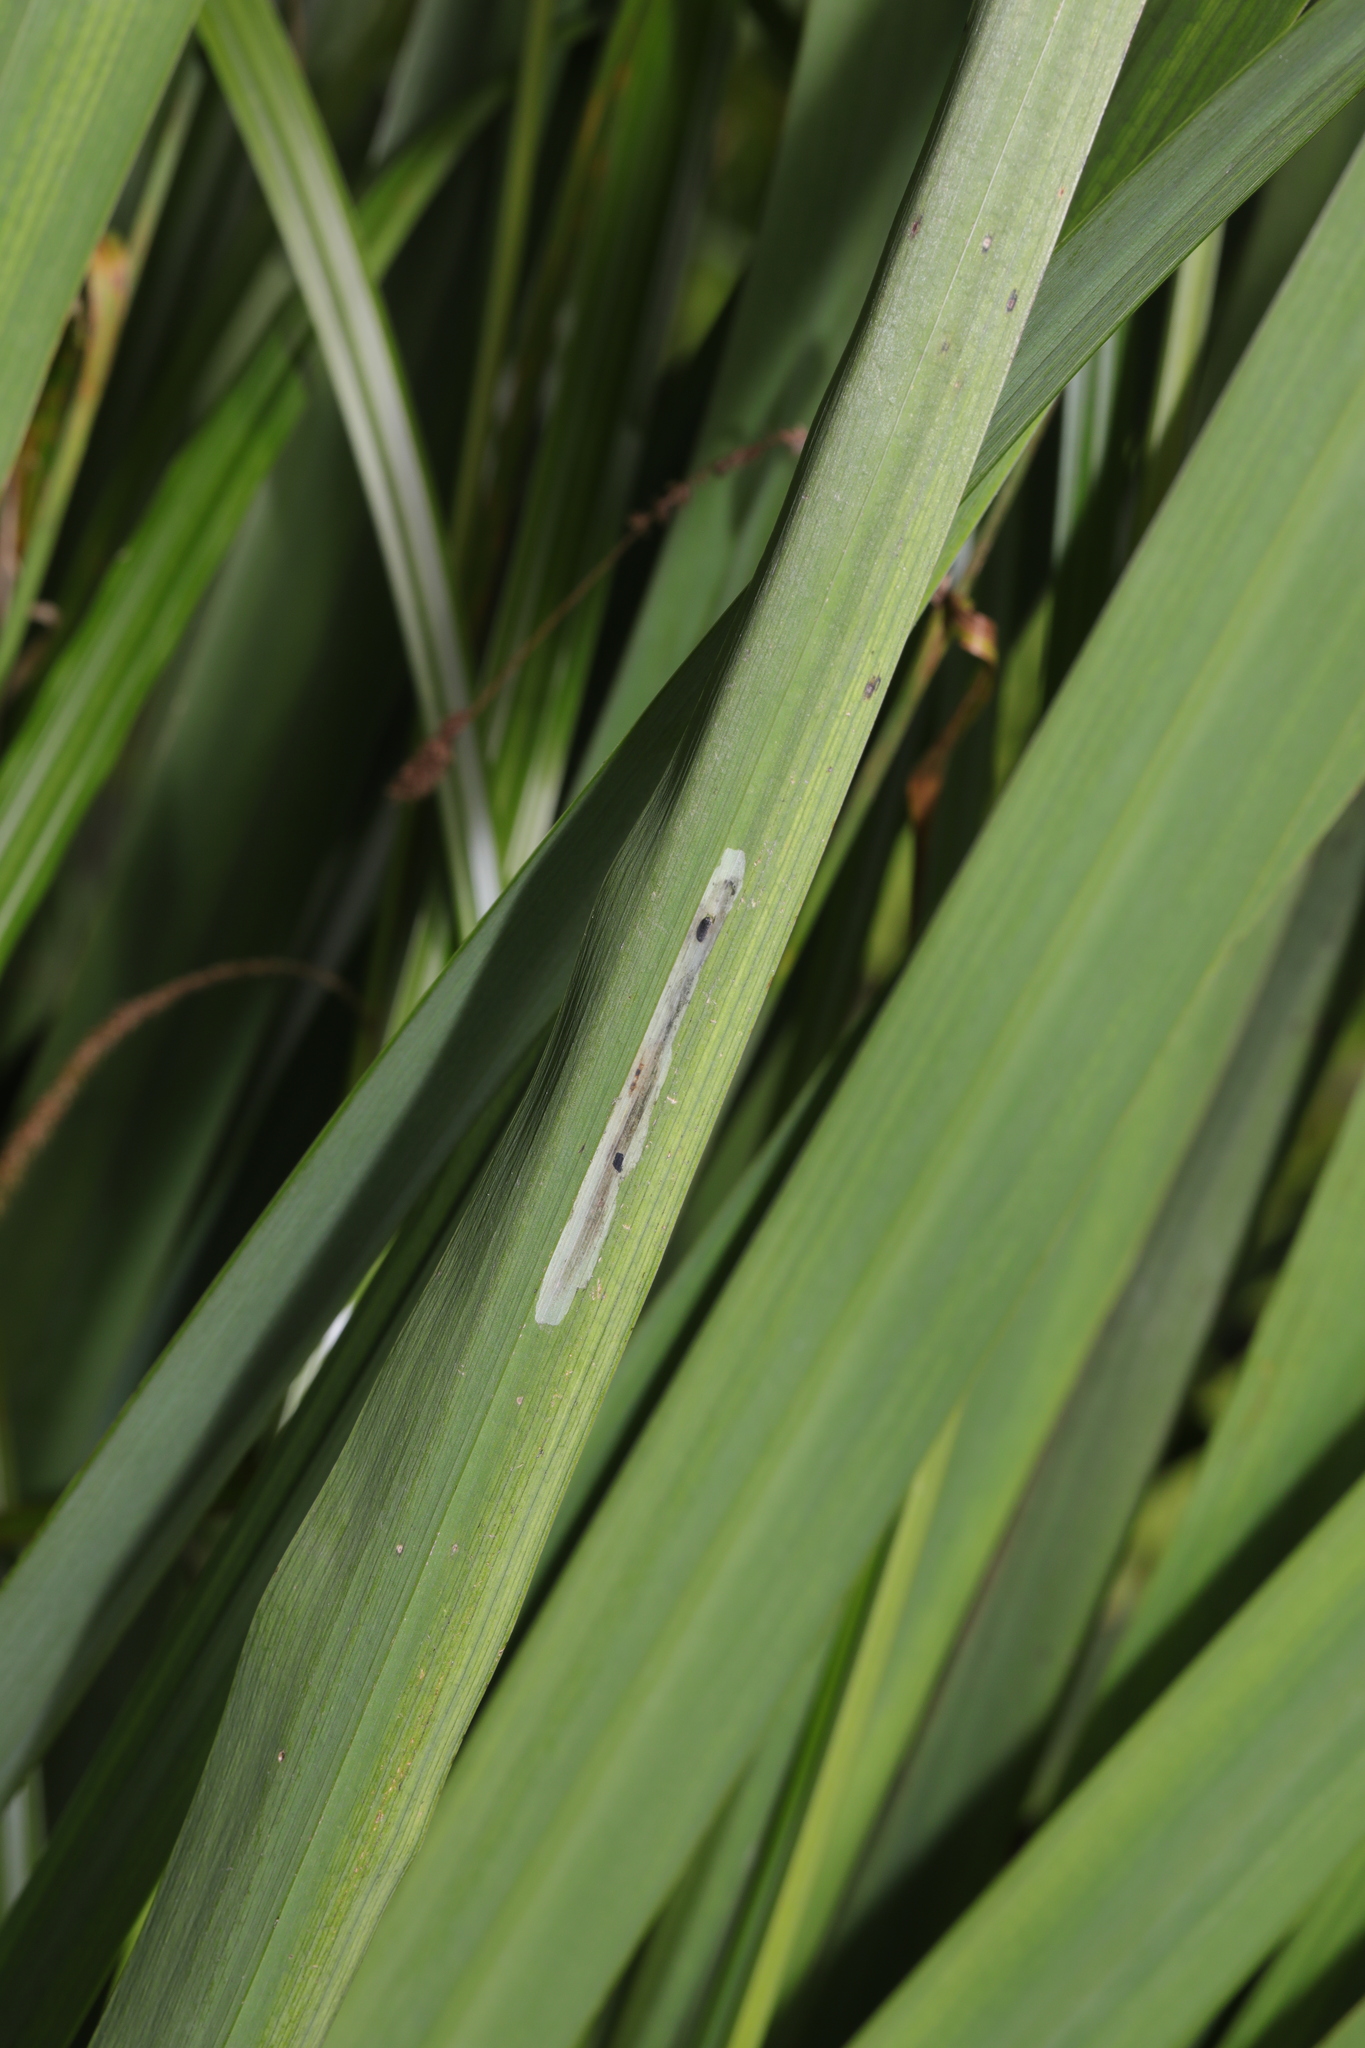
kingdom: Animalia
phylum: Arthropoda
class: Insecta
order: Diptera
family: Agromyzidae
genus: Cerodontha
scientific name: Cerodontha ircos
